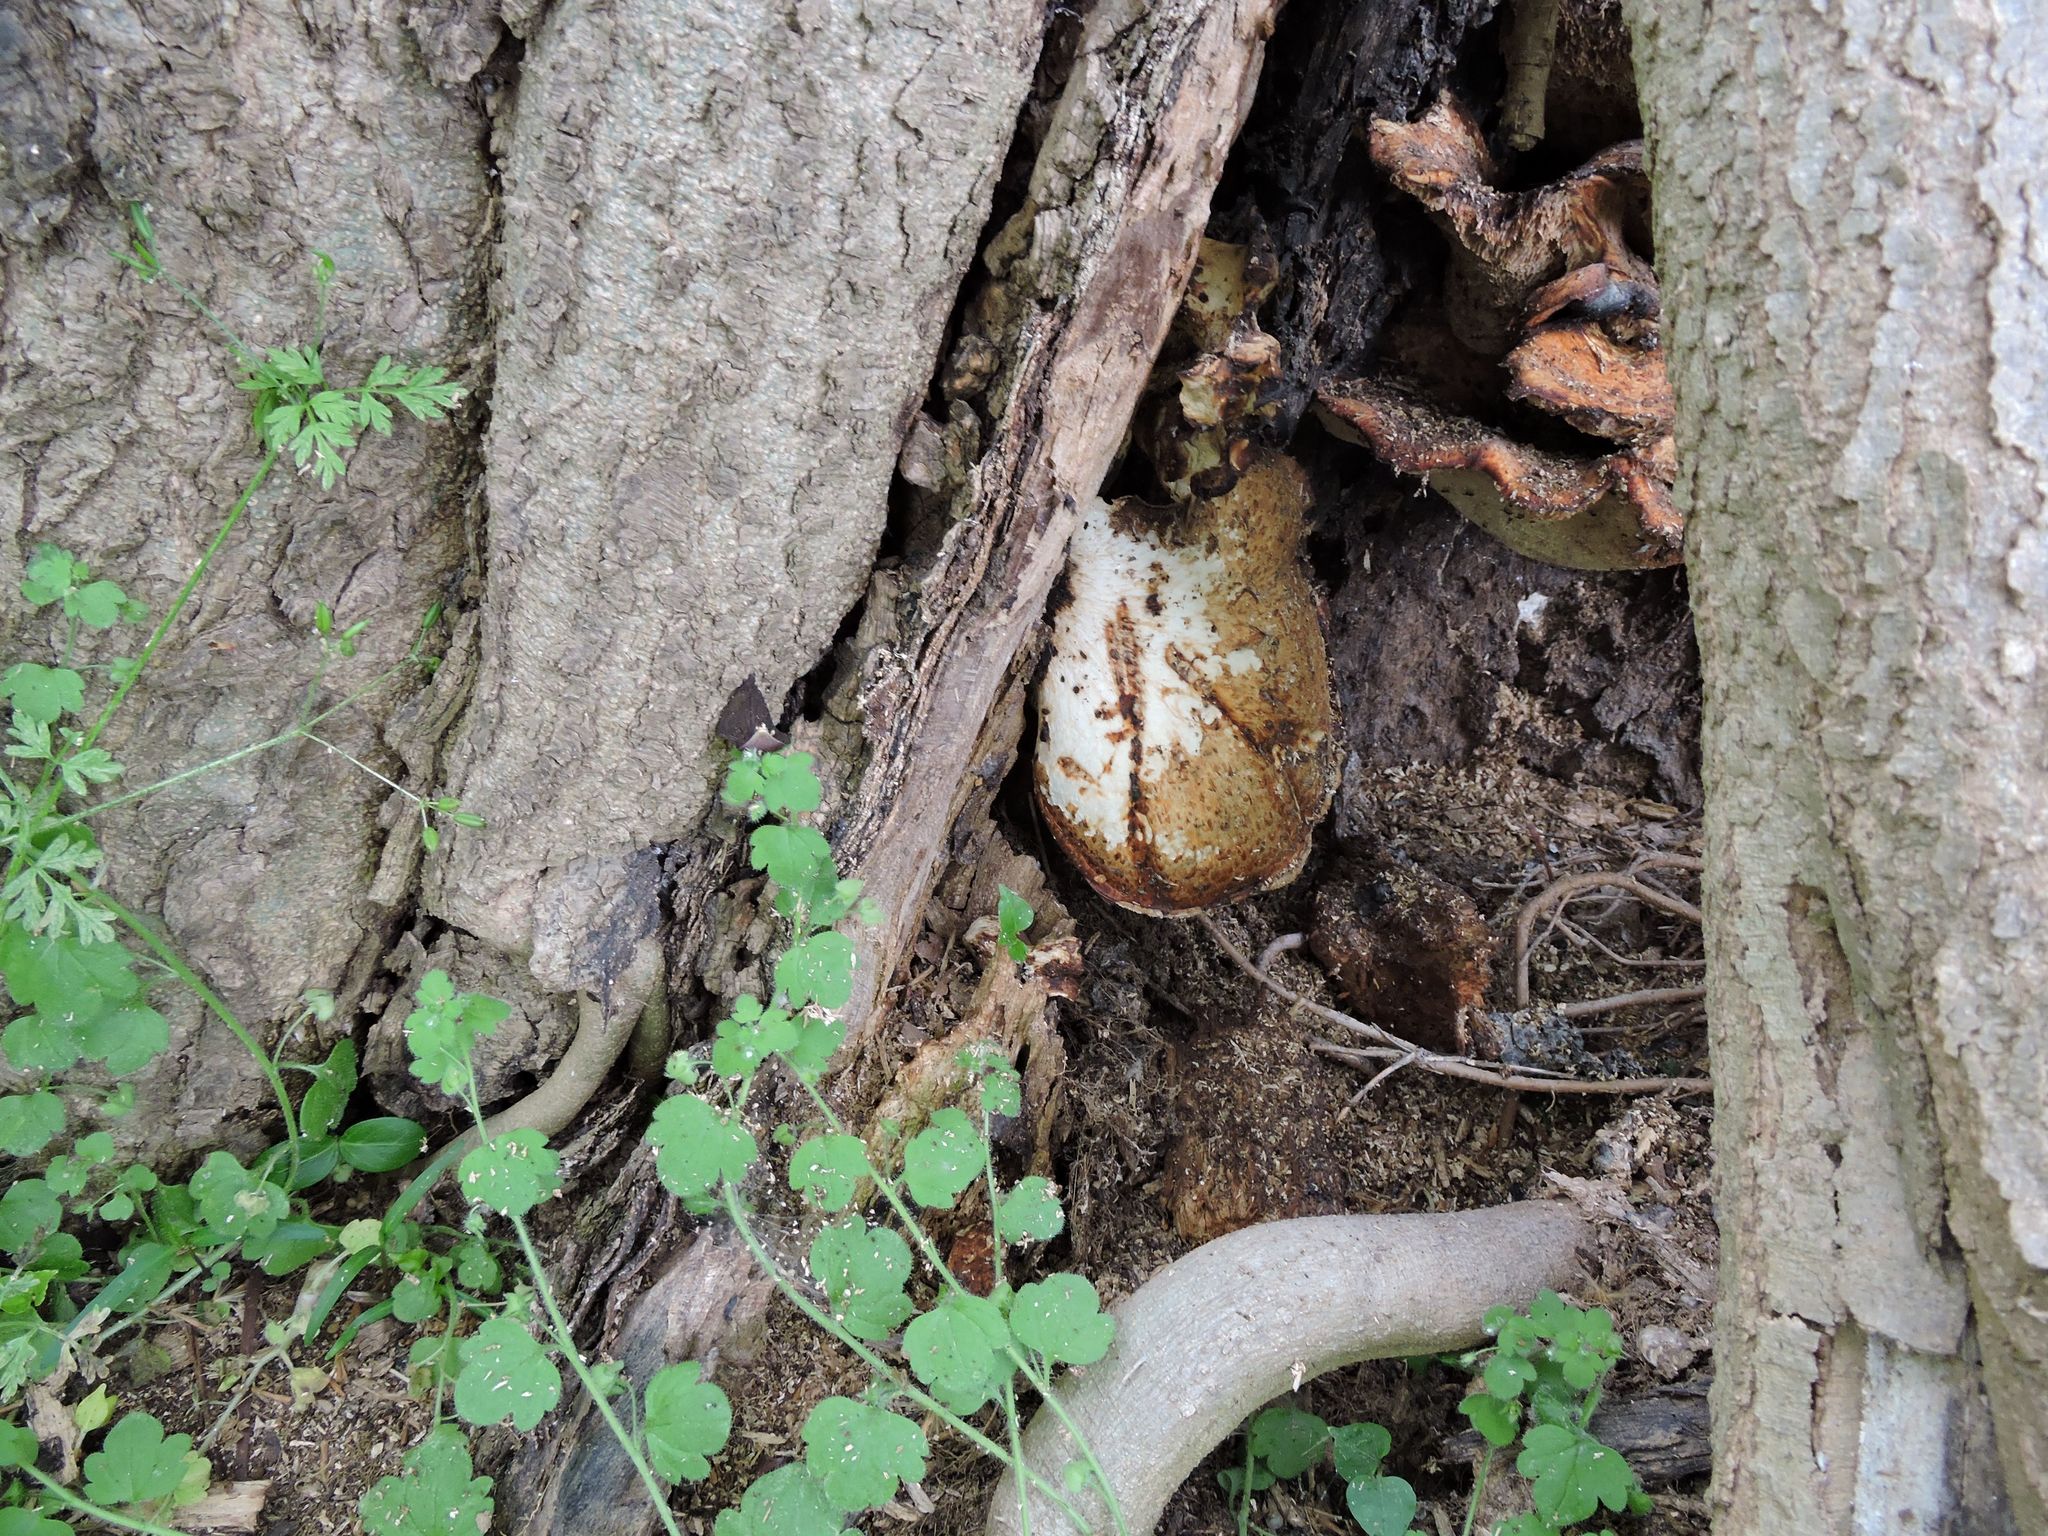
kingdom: Fungi
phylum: Basidiomycota
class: Agaricomycetes
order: Polyporales
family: Polyporaceae
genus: Cerioporus
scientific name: Cerioporus squamosus
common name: Dryad's saddle
